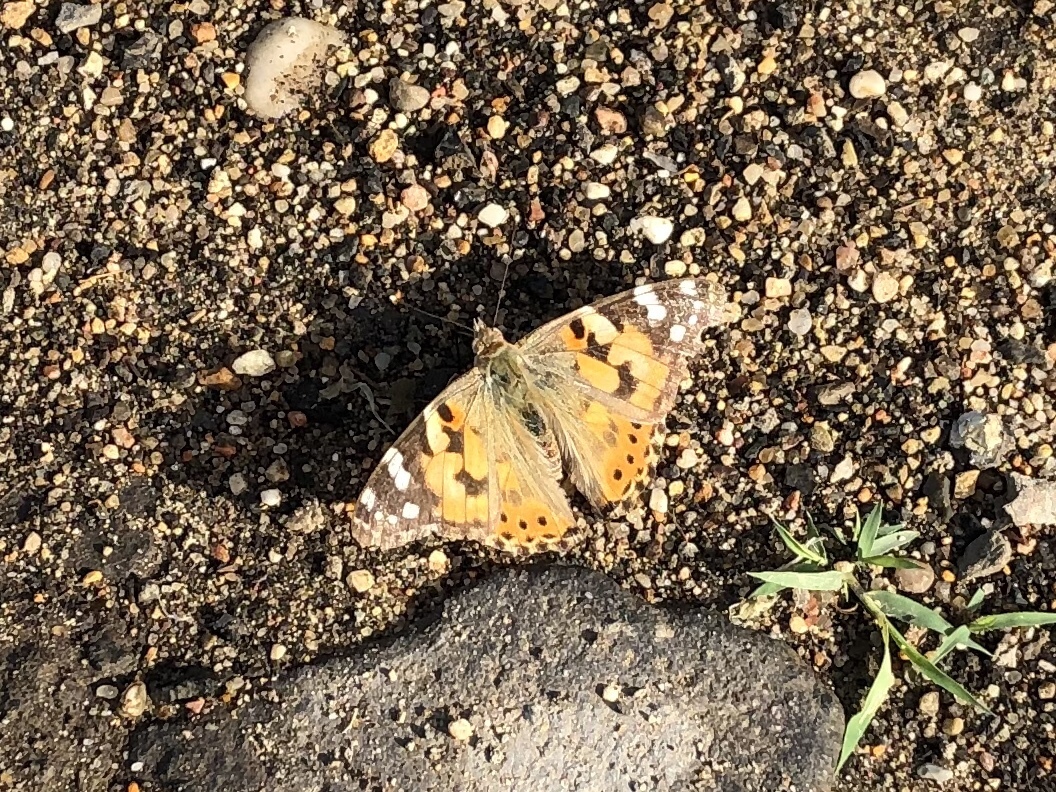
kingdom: Animalia
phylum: Arthropoda
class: Insecta
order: Lepidoptera
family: Nymphalidae
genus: Vanessa
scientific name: Vanessa cardui
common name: Painted lady
